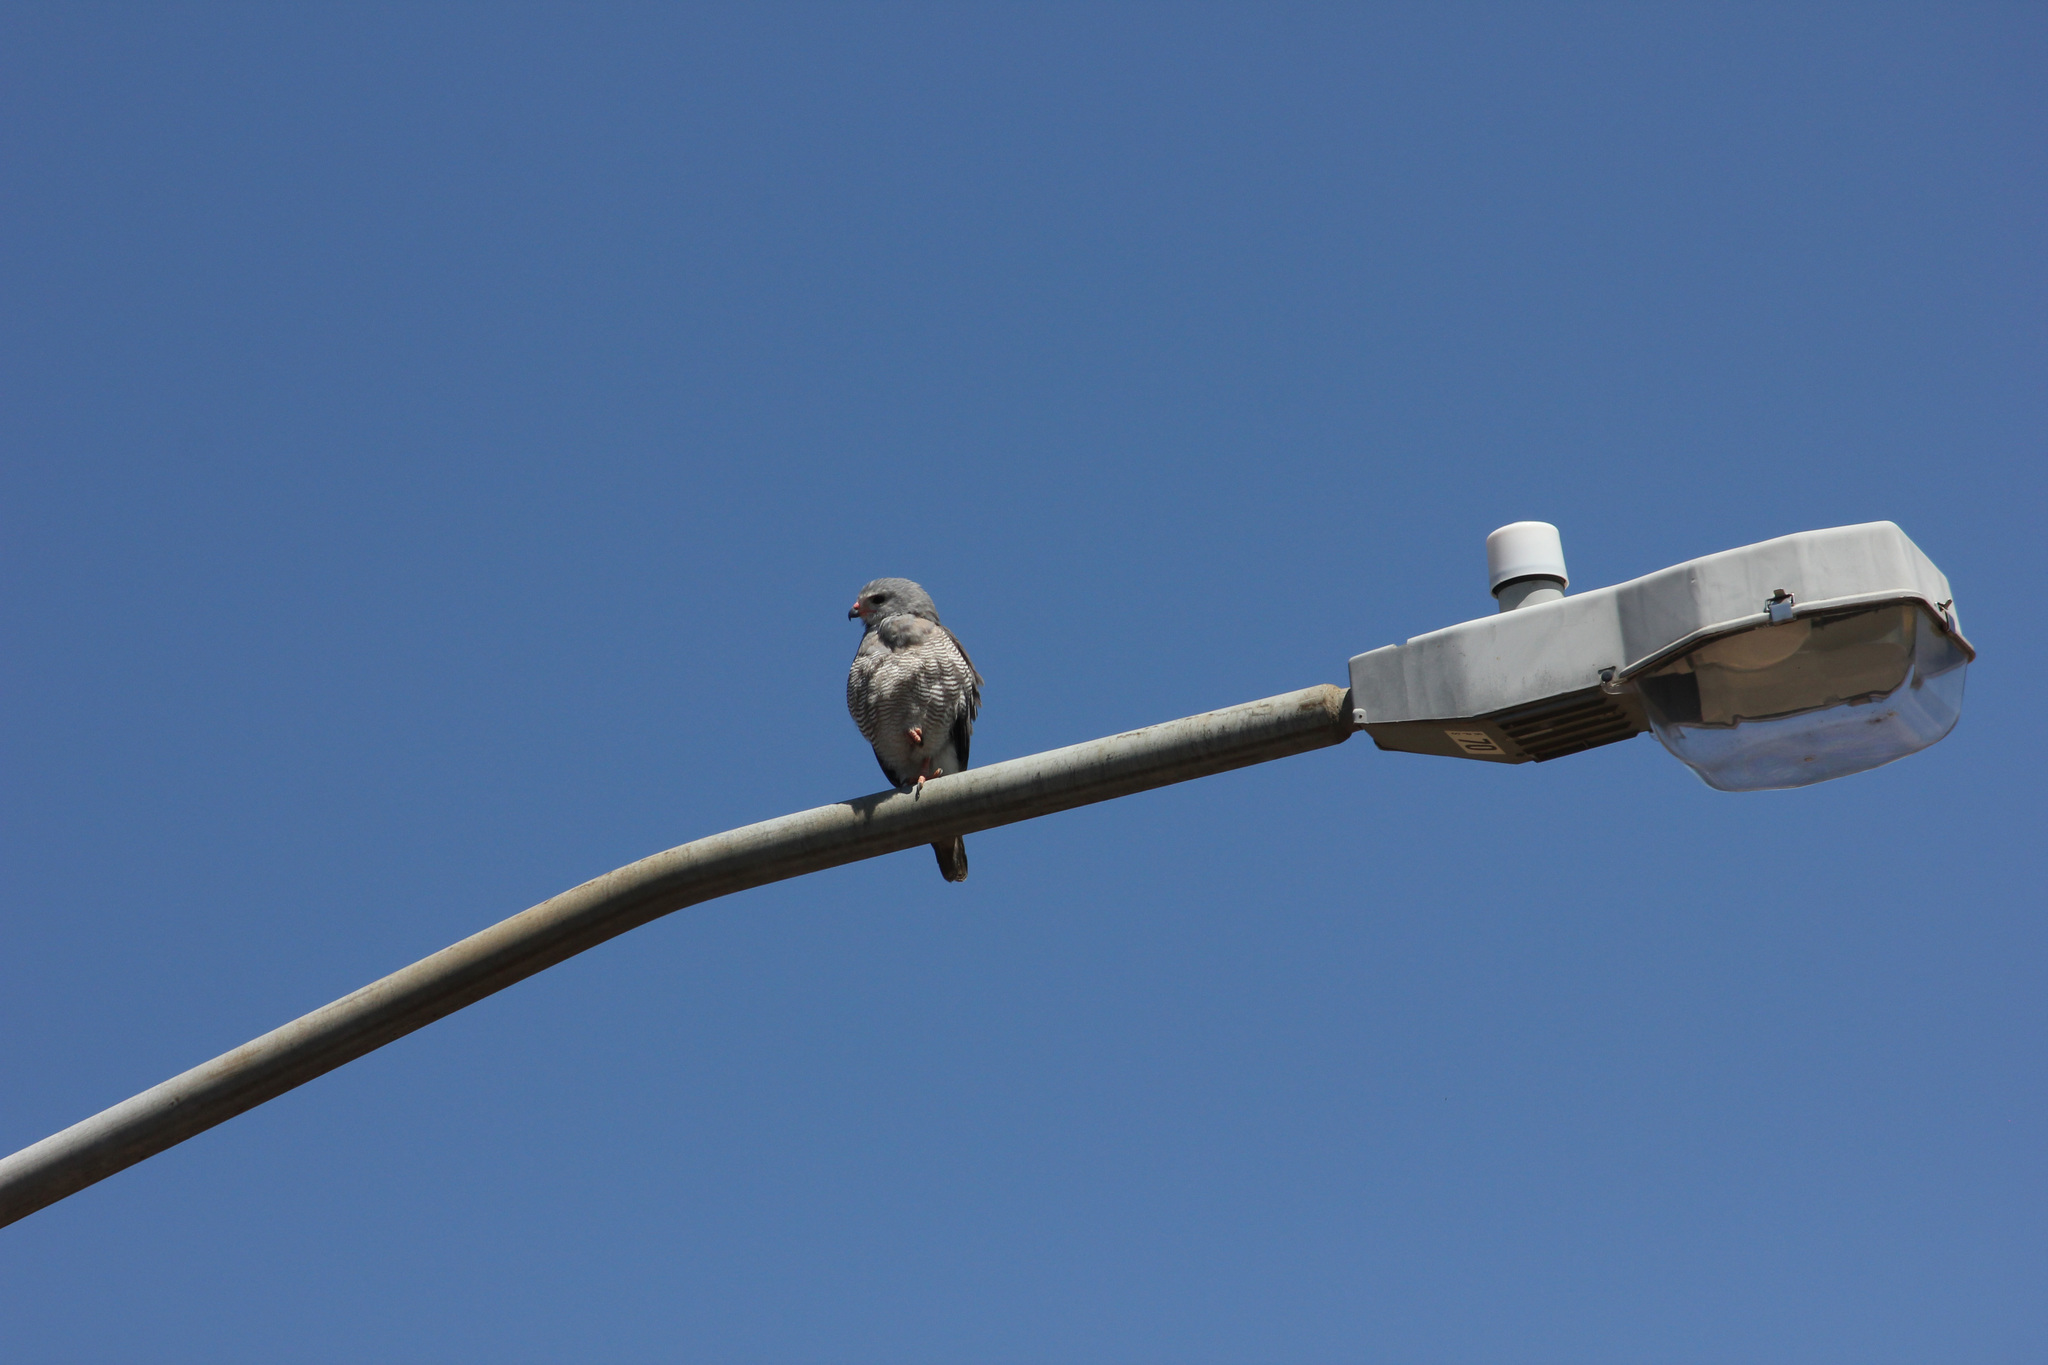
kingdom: Animalia
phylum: Chordata
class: Aves
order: Accipitriformes
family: Accipitridae
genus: Kaupifalco
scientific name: Kaupifalco monogrammicus
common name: Lizard buzzard
